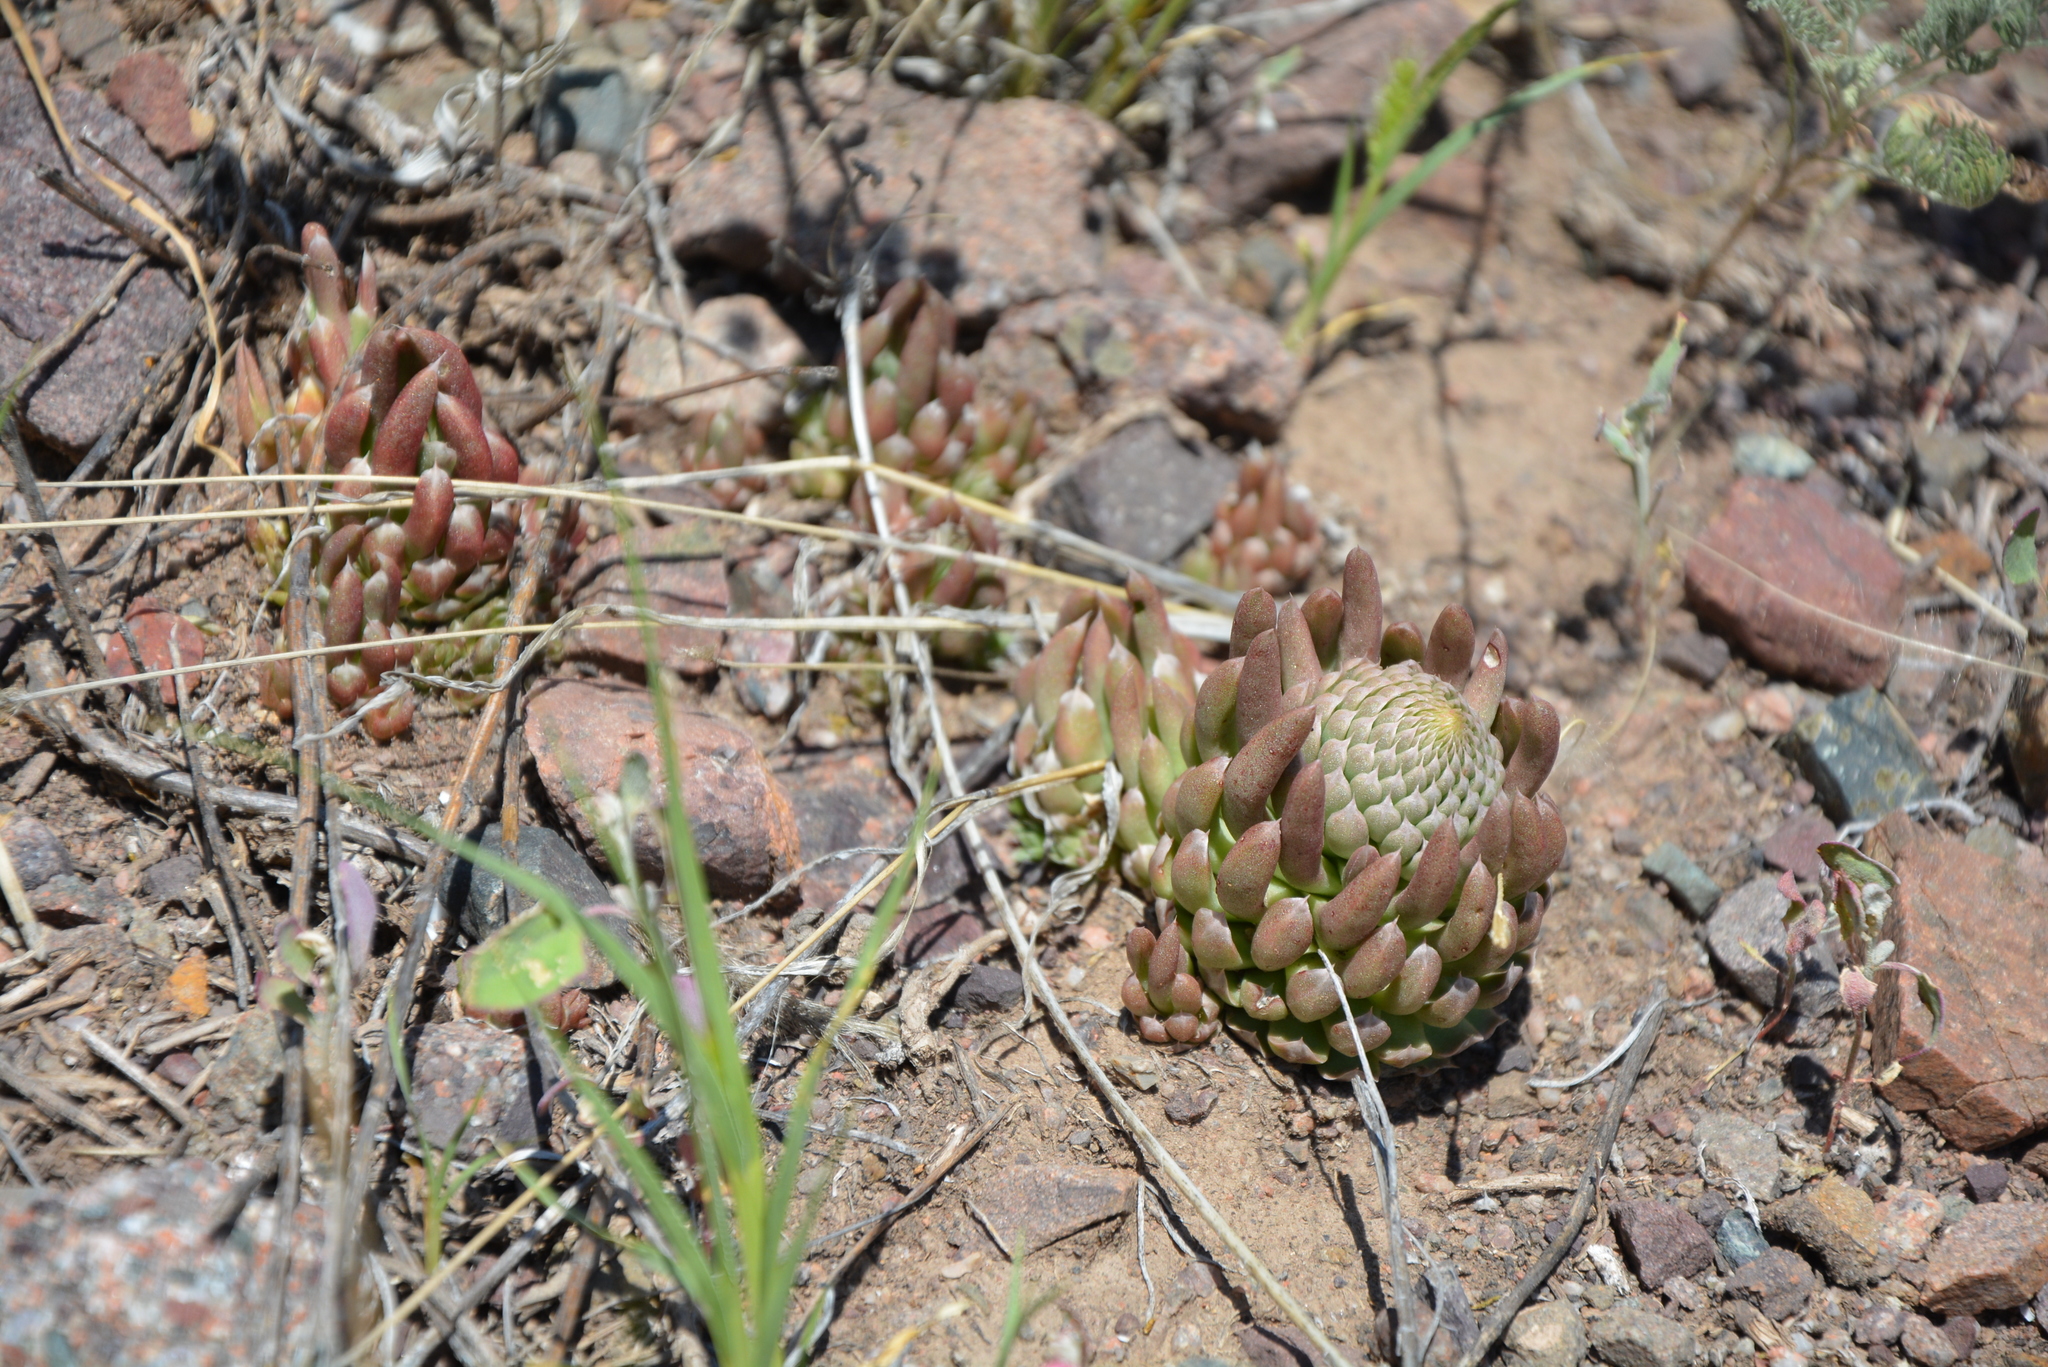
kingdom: Plantae
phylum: Tracheophyta
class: Magnoliopsida
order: Saxifragales
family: Crassulaceae
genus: Orostachys
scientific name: Orostachys thyrsiflora
